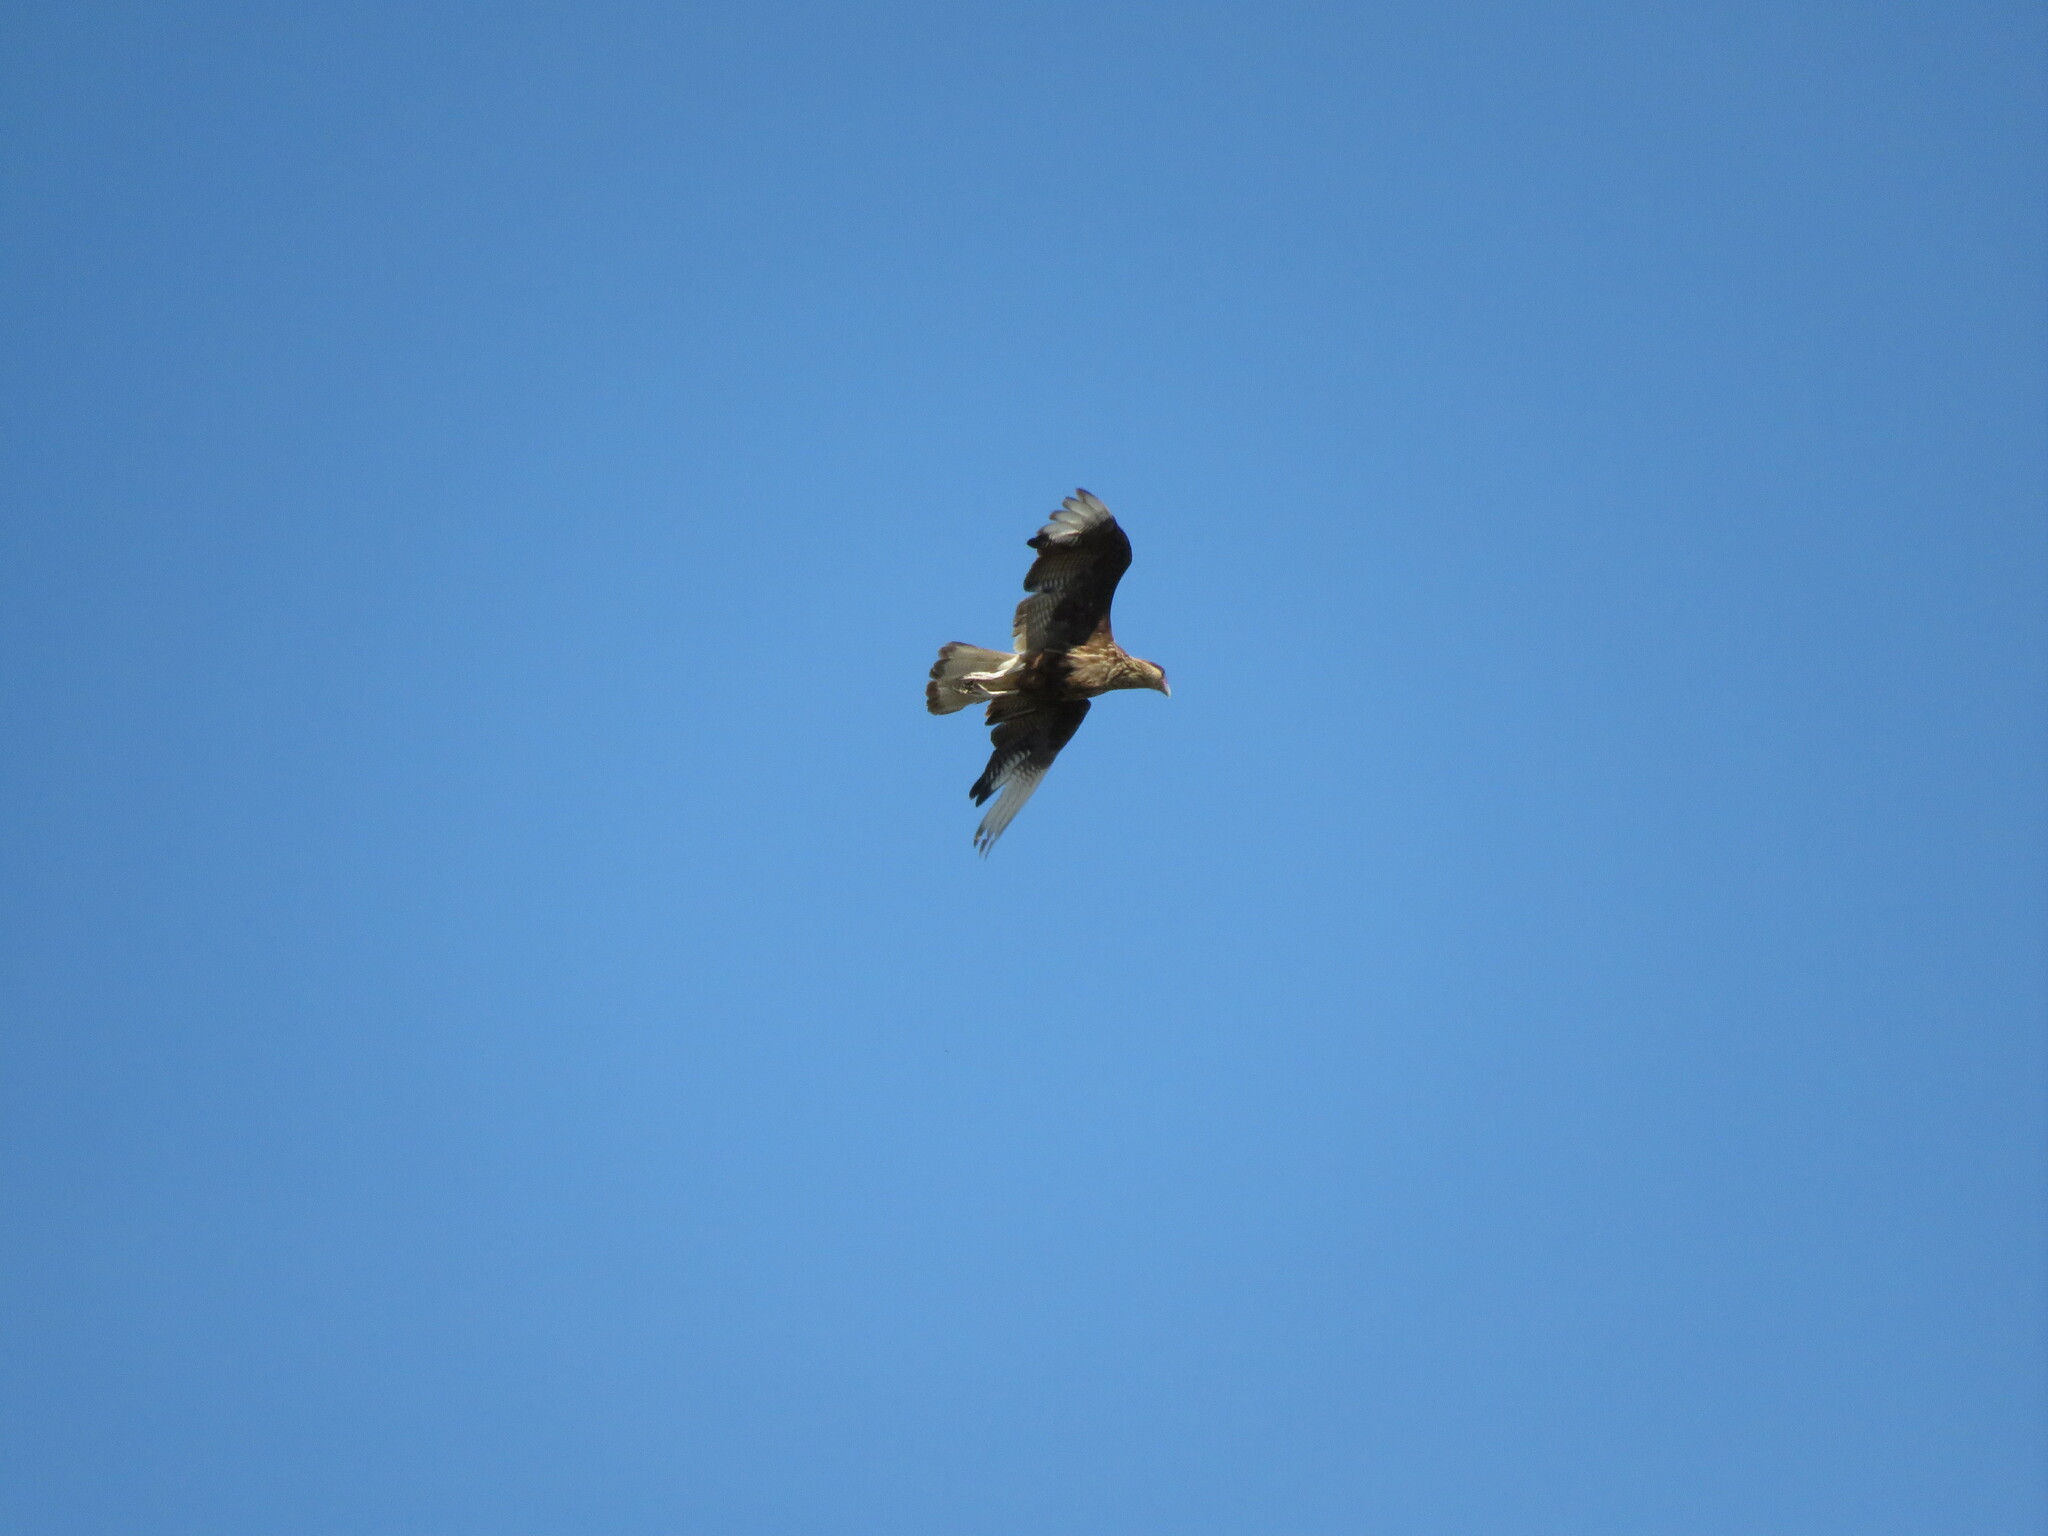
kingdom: Animalia
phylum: Chordata
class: Aves
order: Falconiformes
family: Falconidae
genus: Caracara
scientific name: Caracara plancus
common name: Southern caracara
